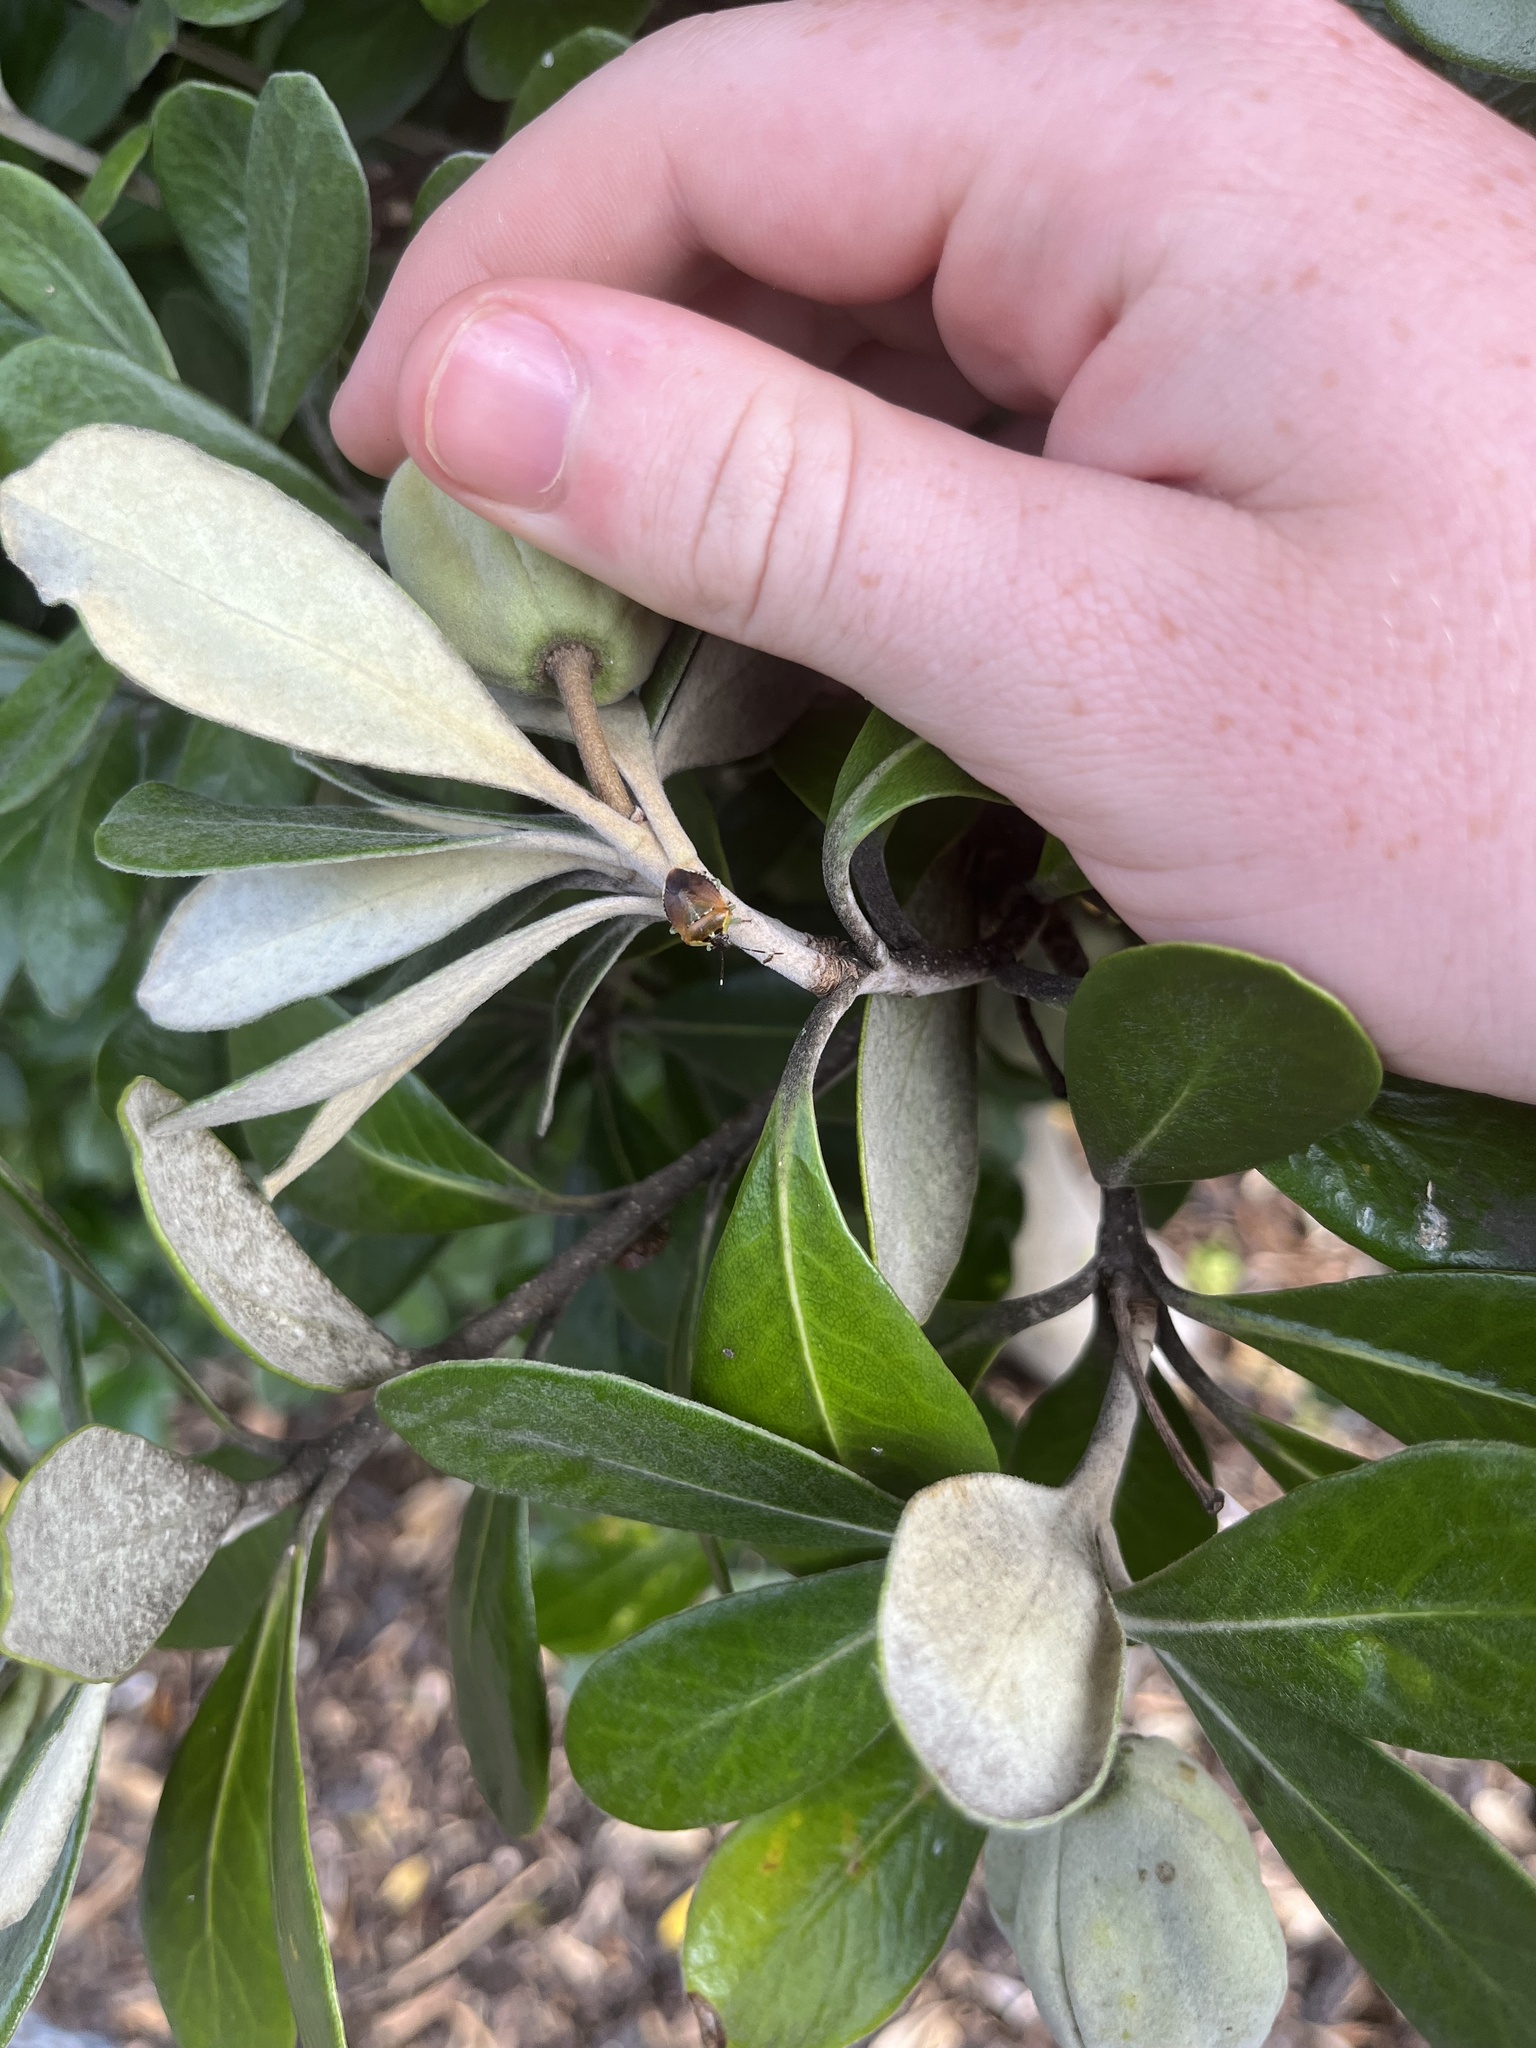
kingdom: Animalia
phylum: Arthropoda
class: Insecta
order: Hemiptera
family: Pentatomidae
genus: Monteithiella
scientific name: Monteithiella
